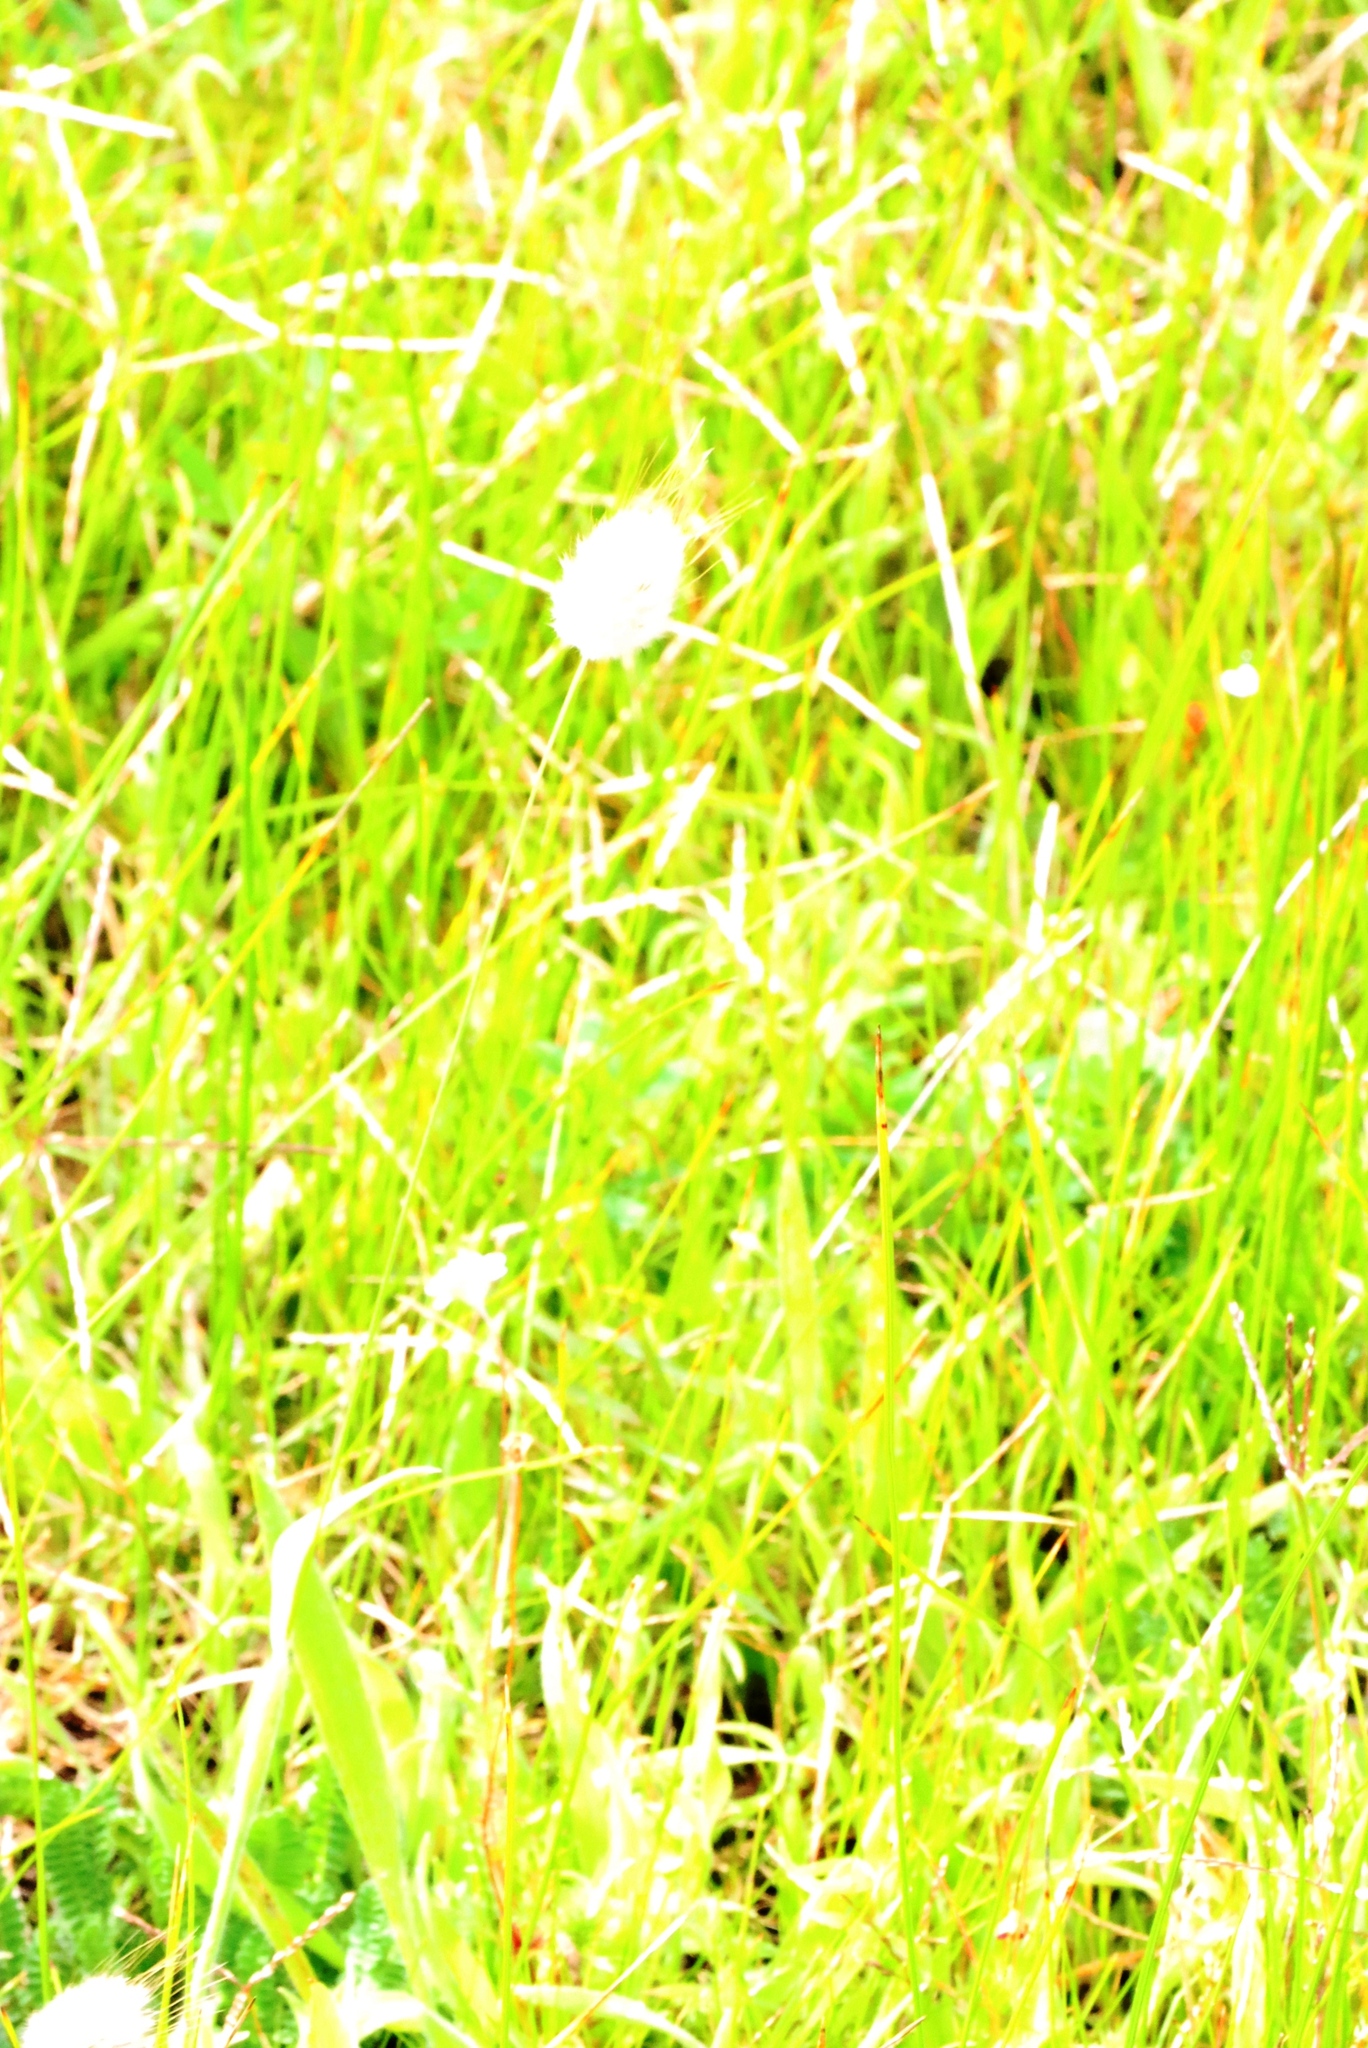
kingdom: Plantae
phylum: Tracheophyta
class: Liliopsida
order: Poales
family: Poaceae
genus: Lagurus
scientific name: Lagurus ovatus
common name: Hare's-tail
